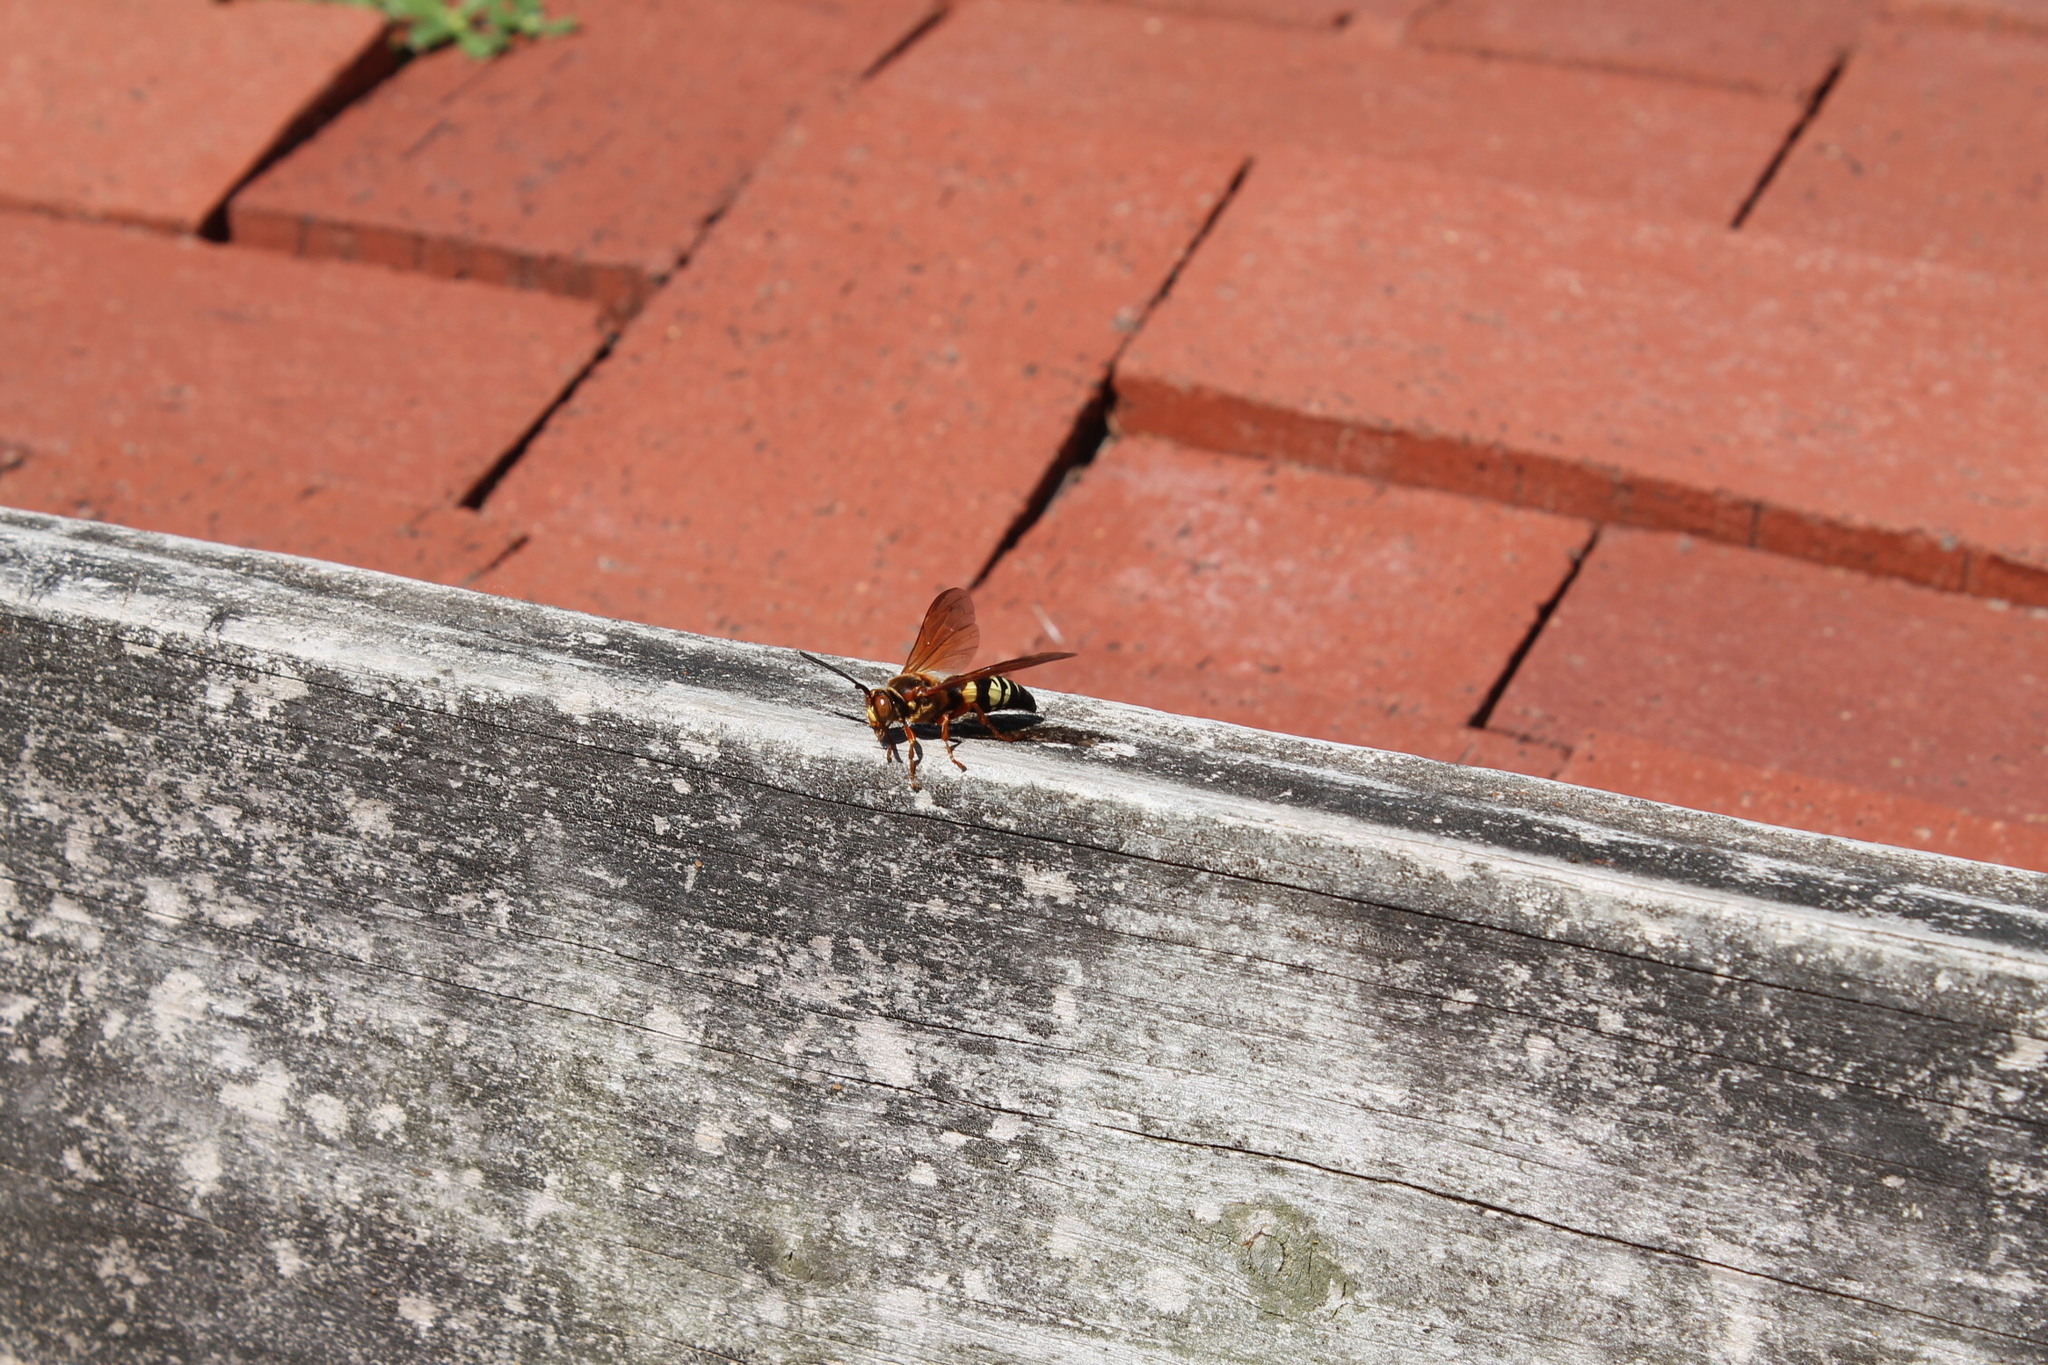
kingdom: Animalia
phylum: Arthropoda
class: Insecta
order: Hymenoptera
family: Crabronidae
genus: Sphecius
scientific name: Sphecius speciosus
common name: Cicada killer
